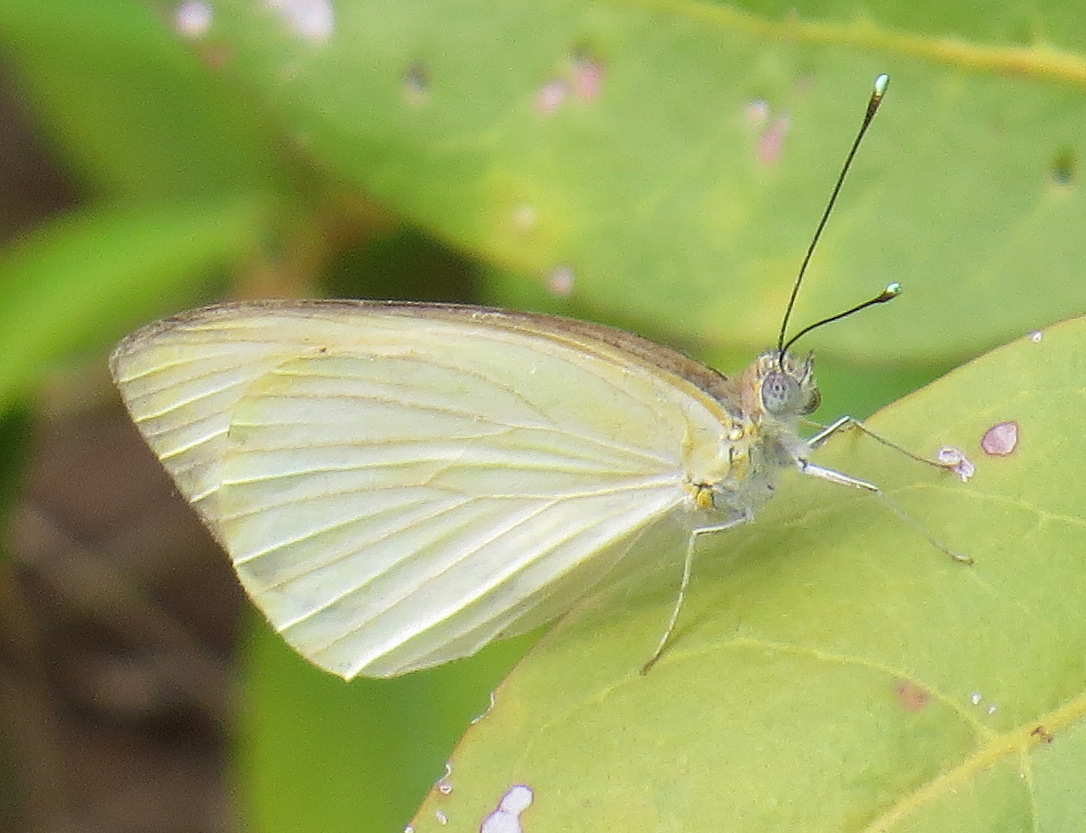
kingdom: Animalia
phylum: Arthropoda
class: Insecta
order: Lepidoptera
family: Pieridae
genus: Ascia
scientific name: Ascia monuste
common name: Great southern white
